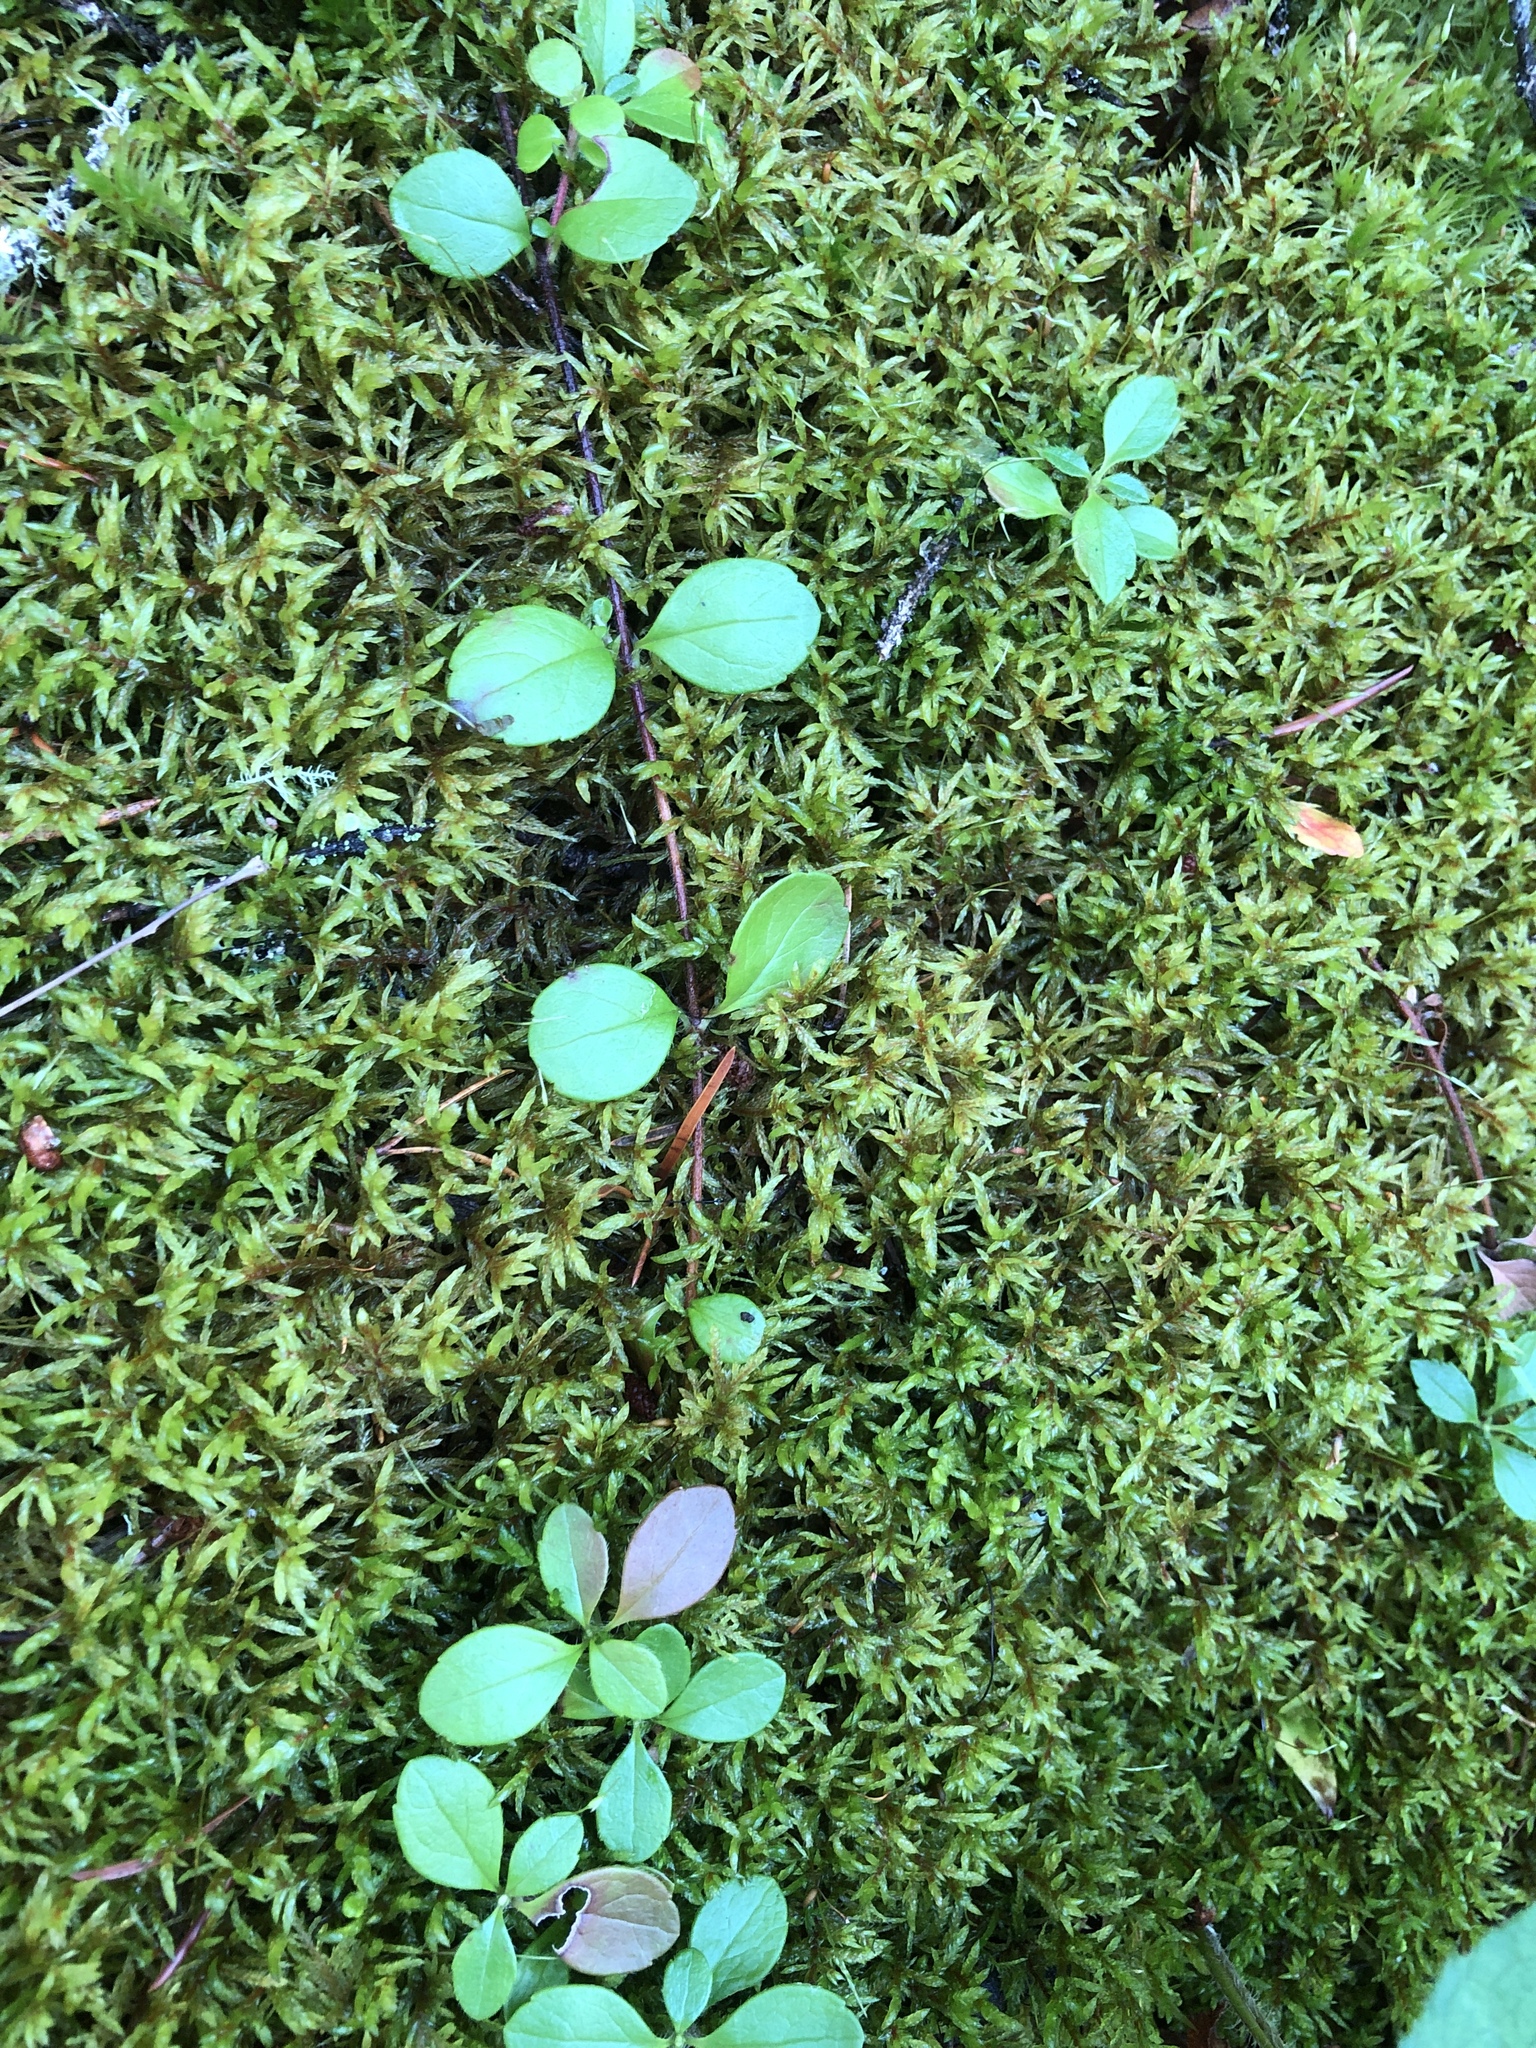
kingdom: Plantae
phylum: Tracheophyta
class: Magnoliopsida
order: Dipsacales
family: Caprifoliaceae
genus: Linnaea
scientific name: Linnaea borealis
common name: Twinflower
